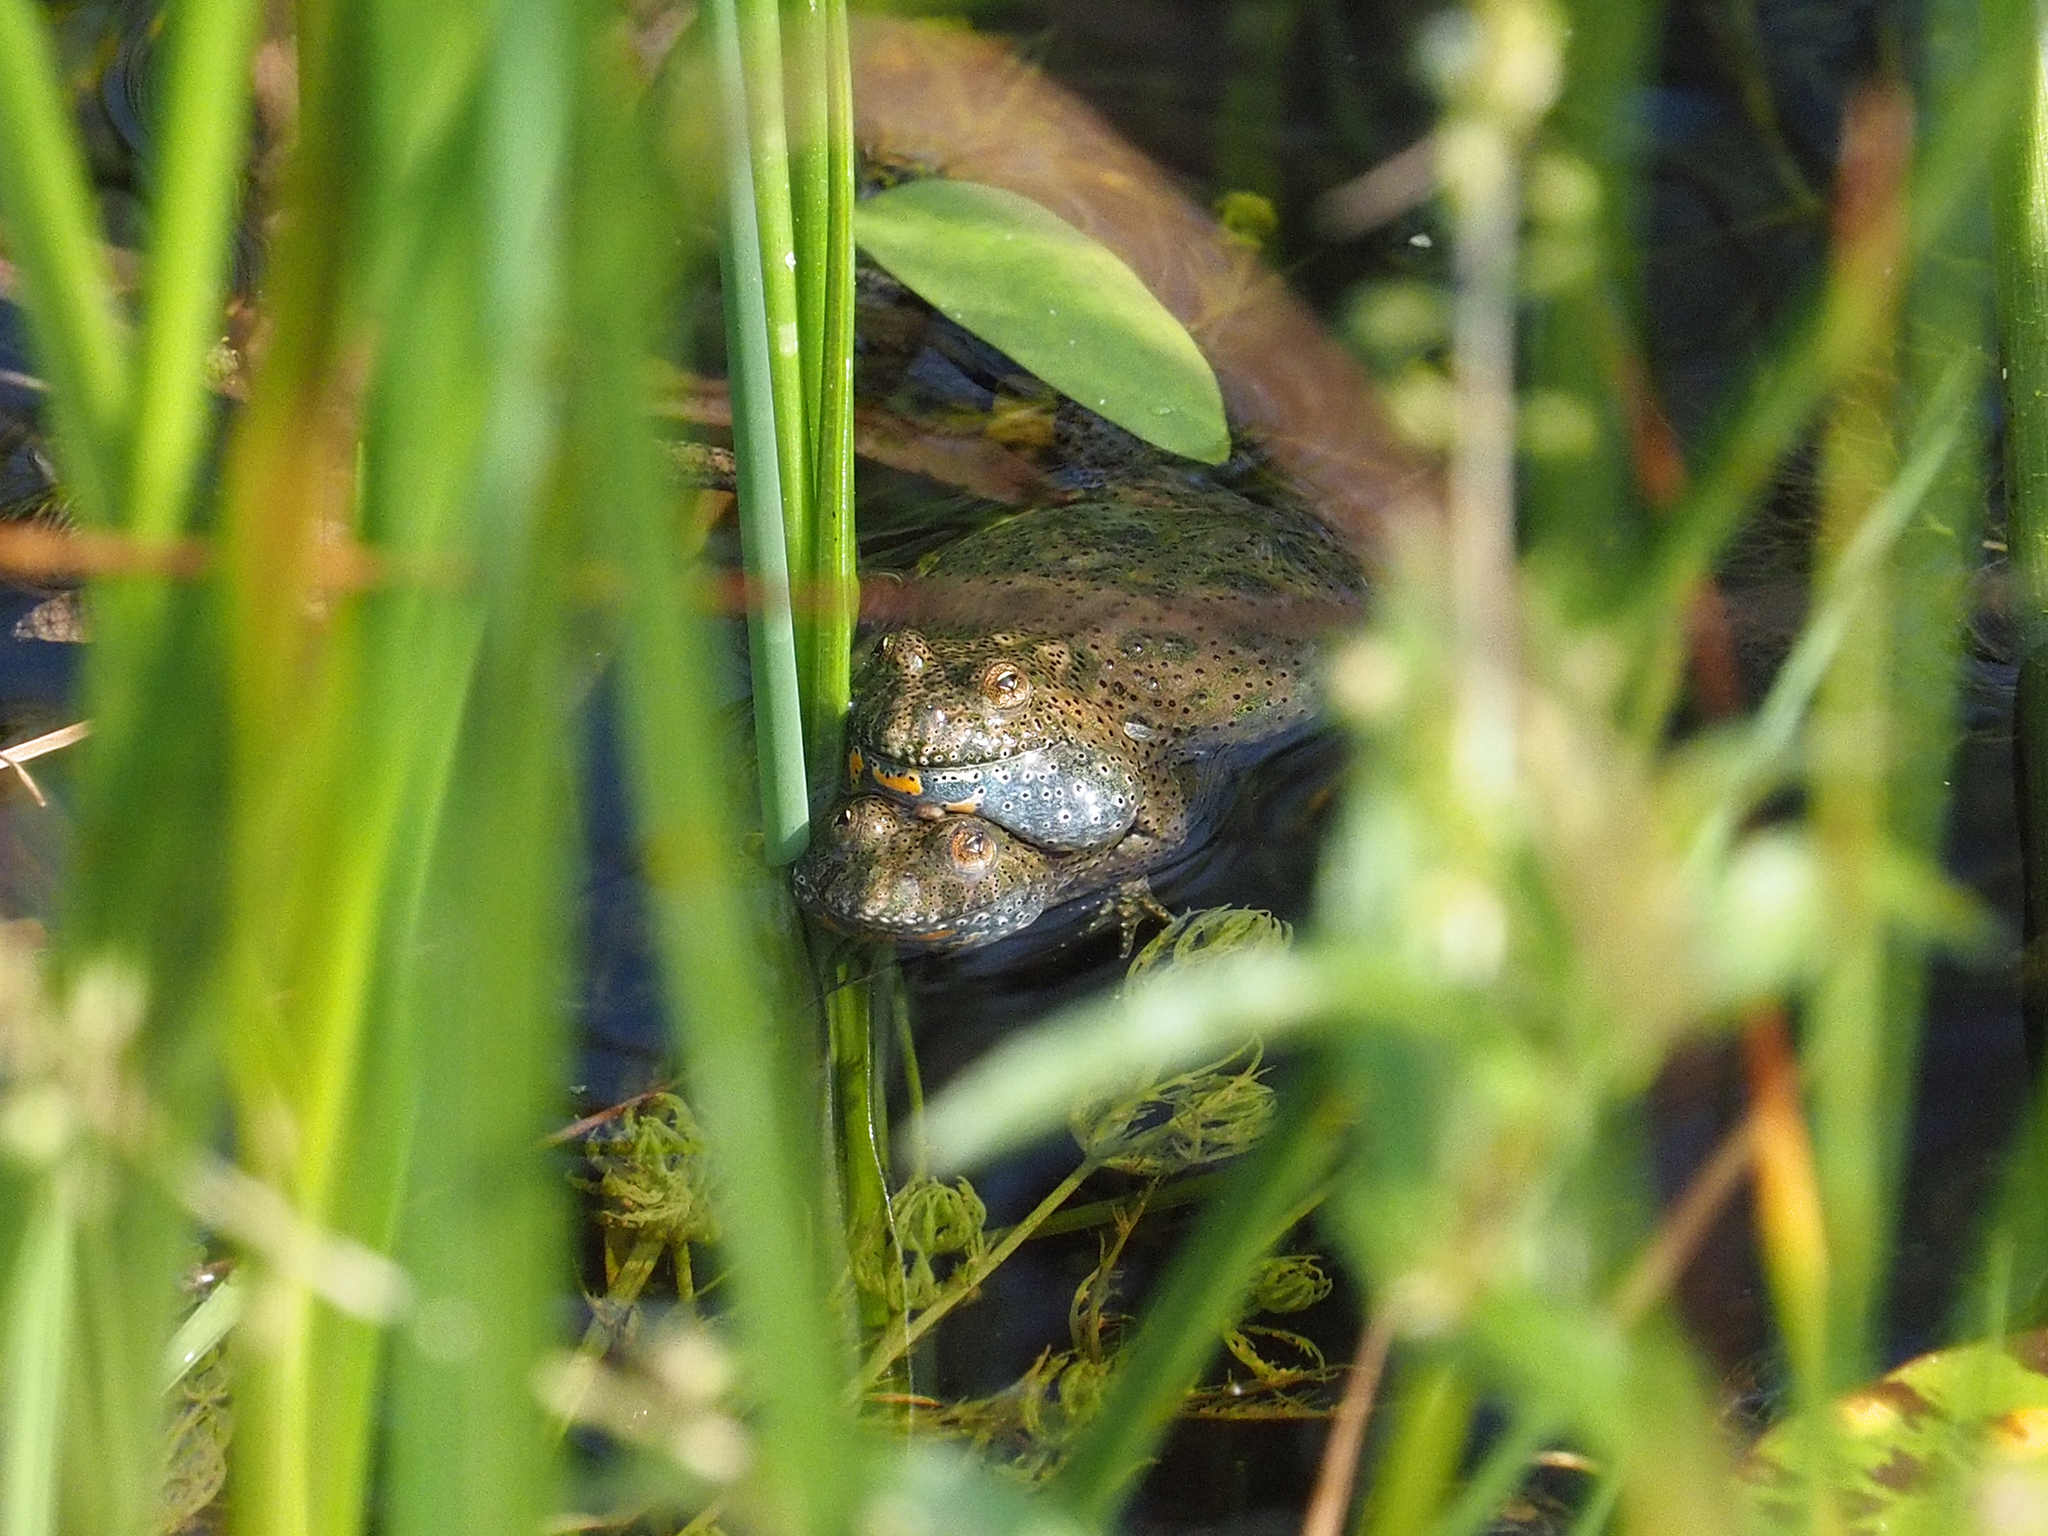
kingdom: Animalia
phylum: Chordata
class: Amphibia
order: Anura
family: Bombinatoridae
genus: Bombina
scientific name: Bombina bombina
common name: Fire-bellied toad
